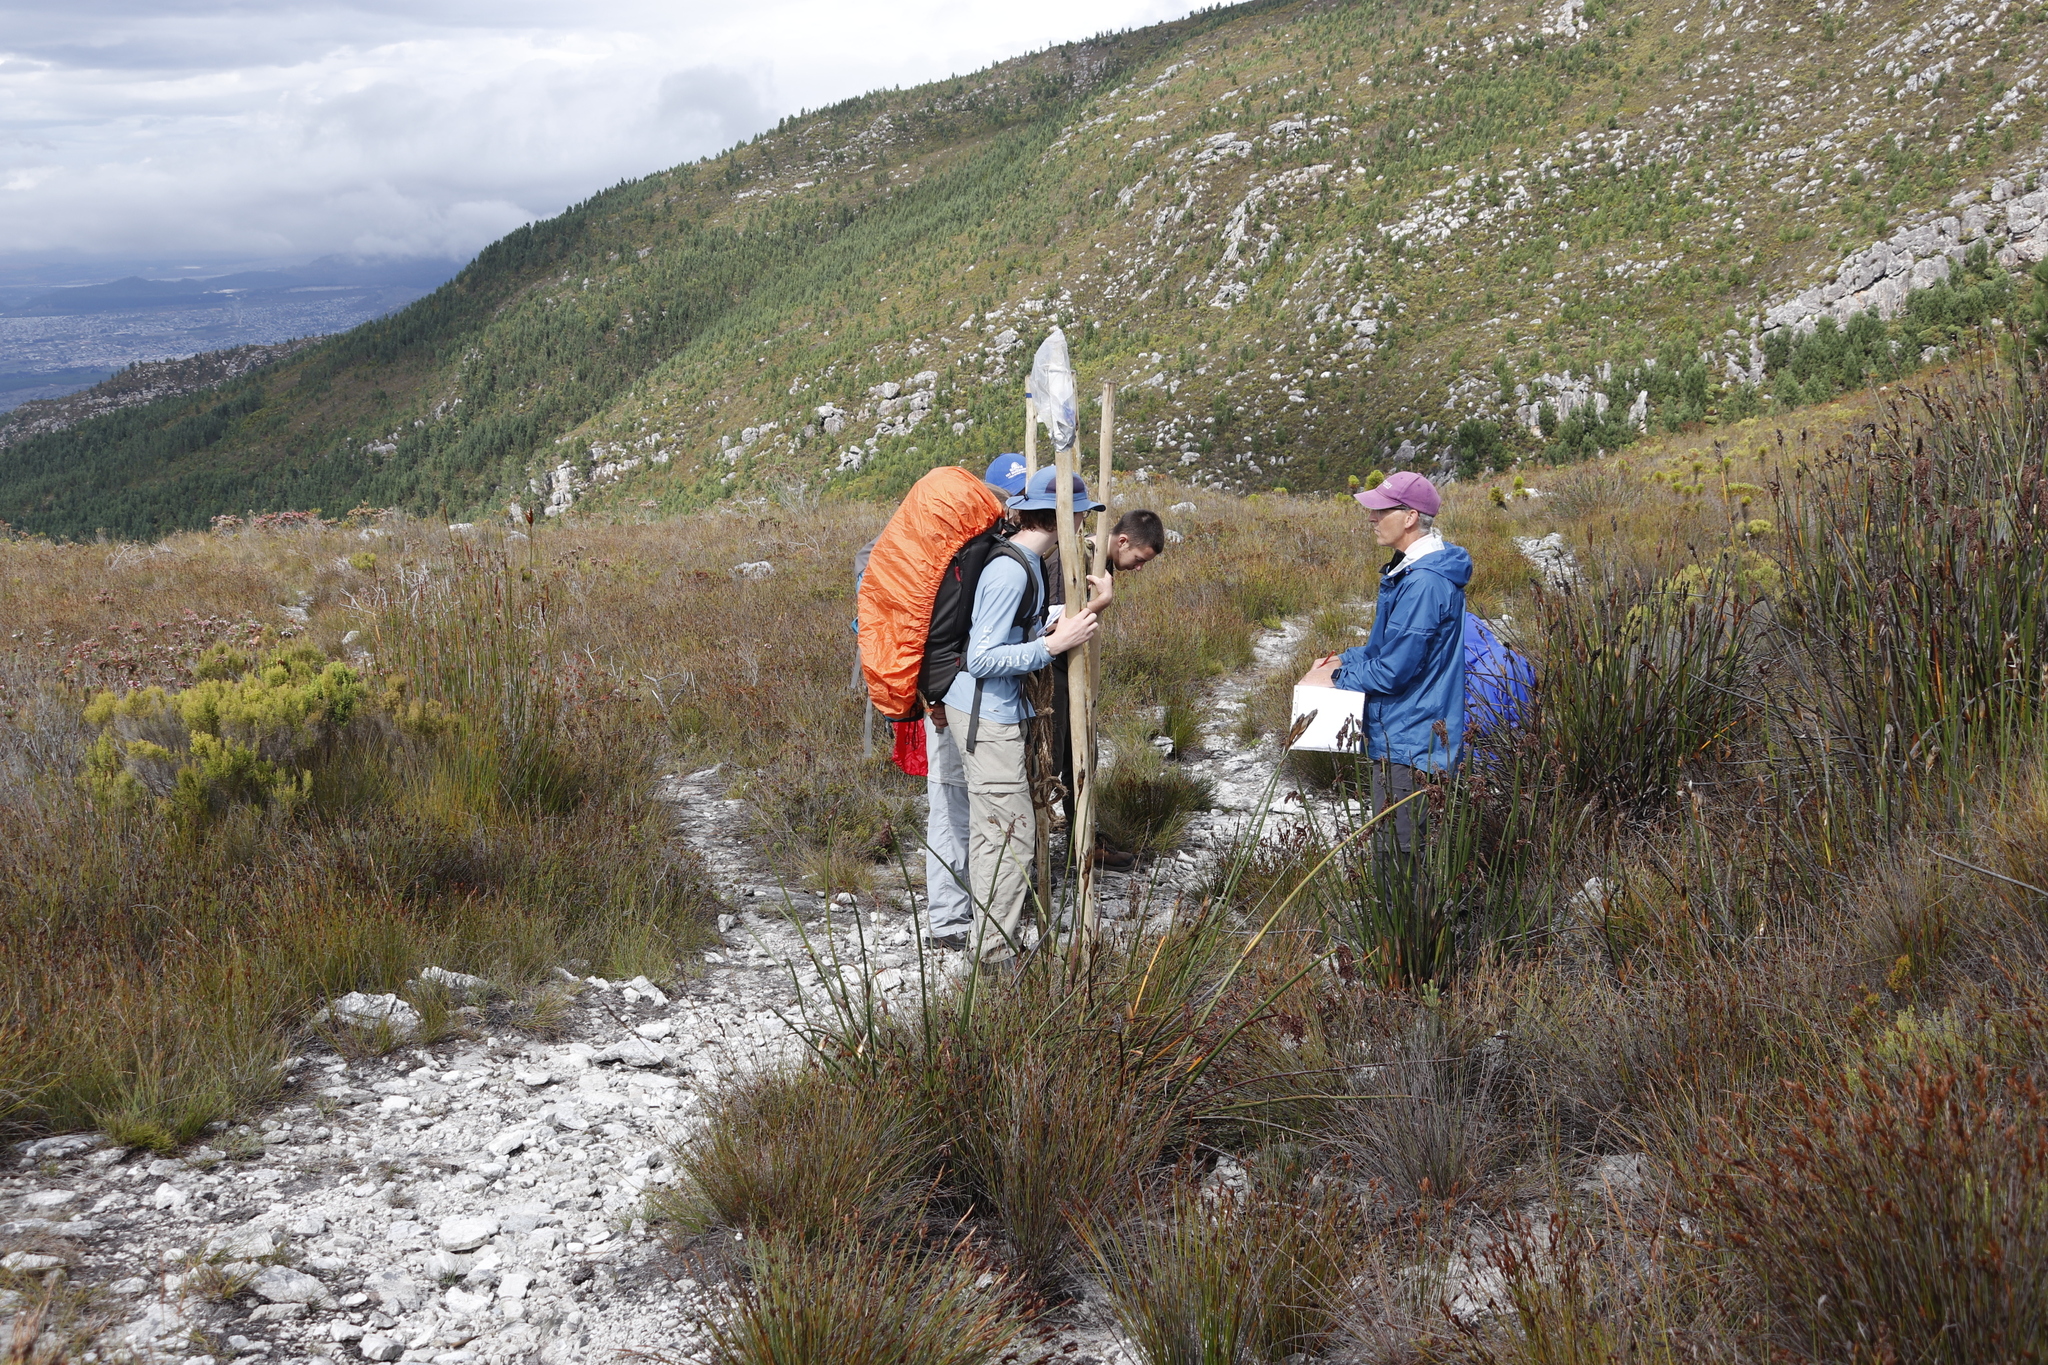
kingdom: Plantae
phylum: Tracheophyta
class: Liliopsida
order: Poales
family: Restionaceae
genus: Elegia
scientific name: Elegia mucronata
